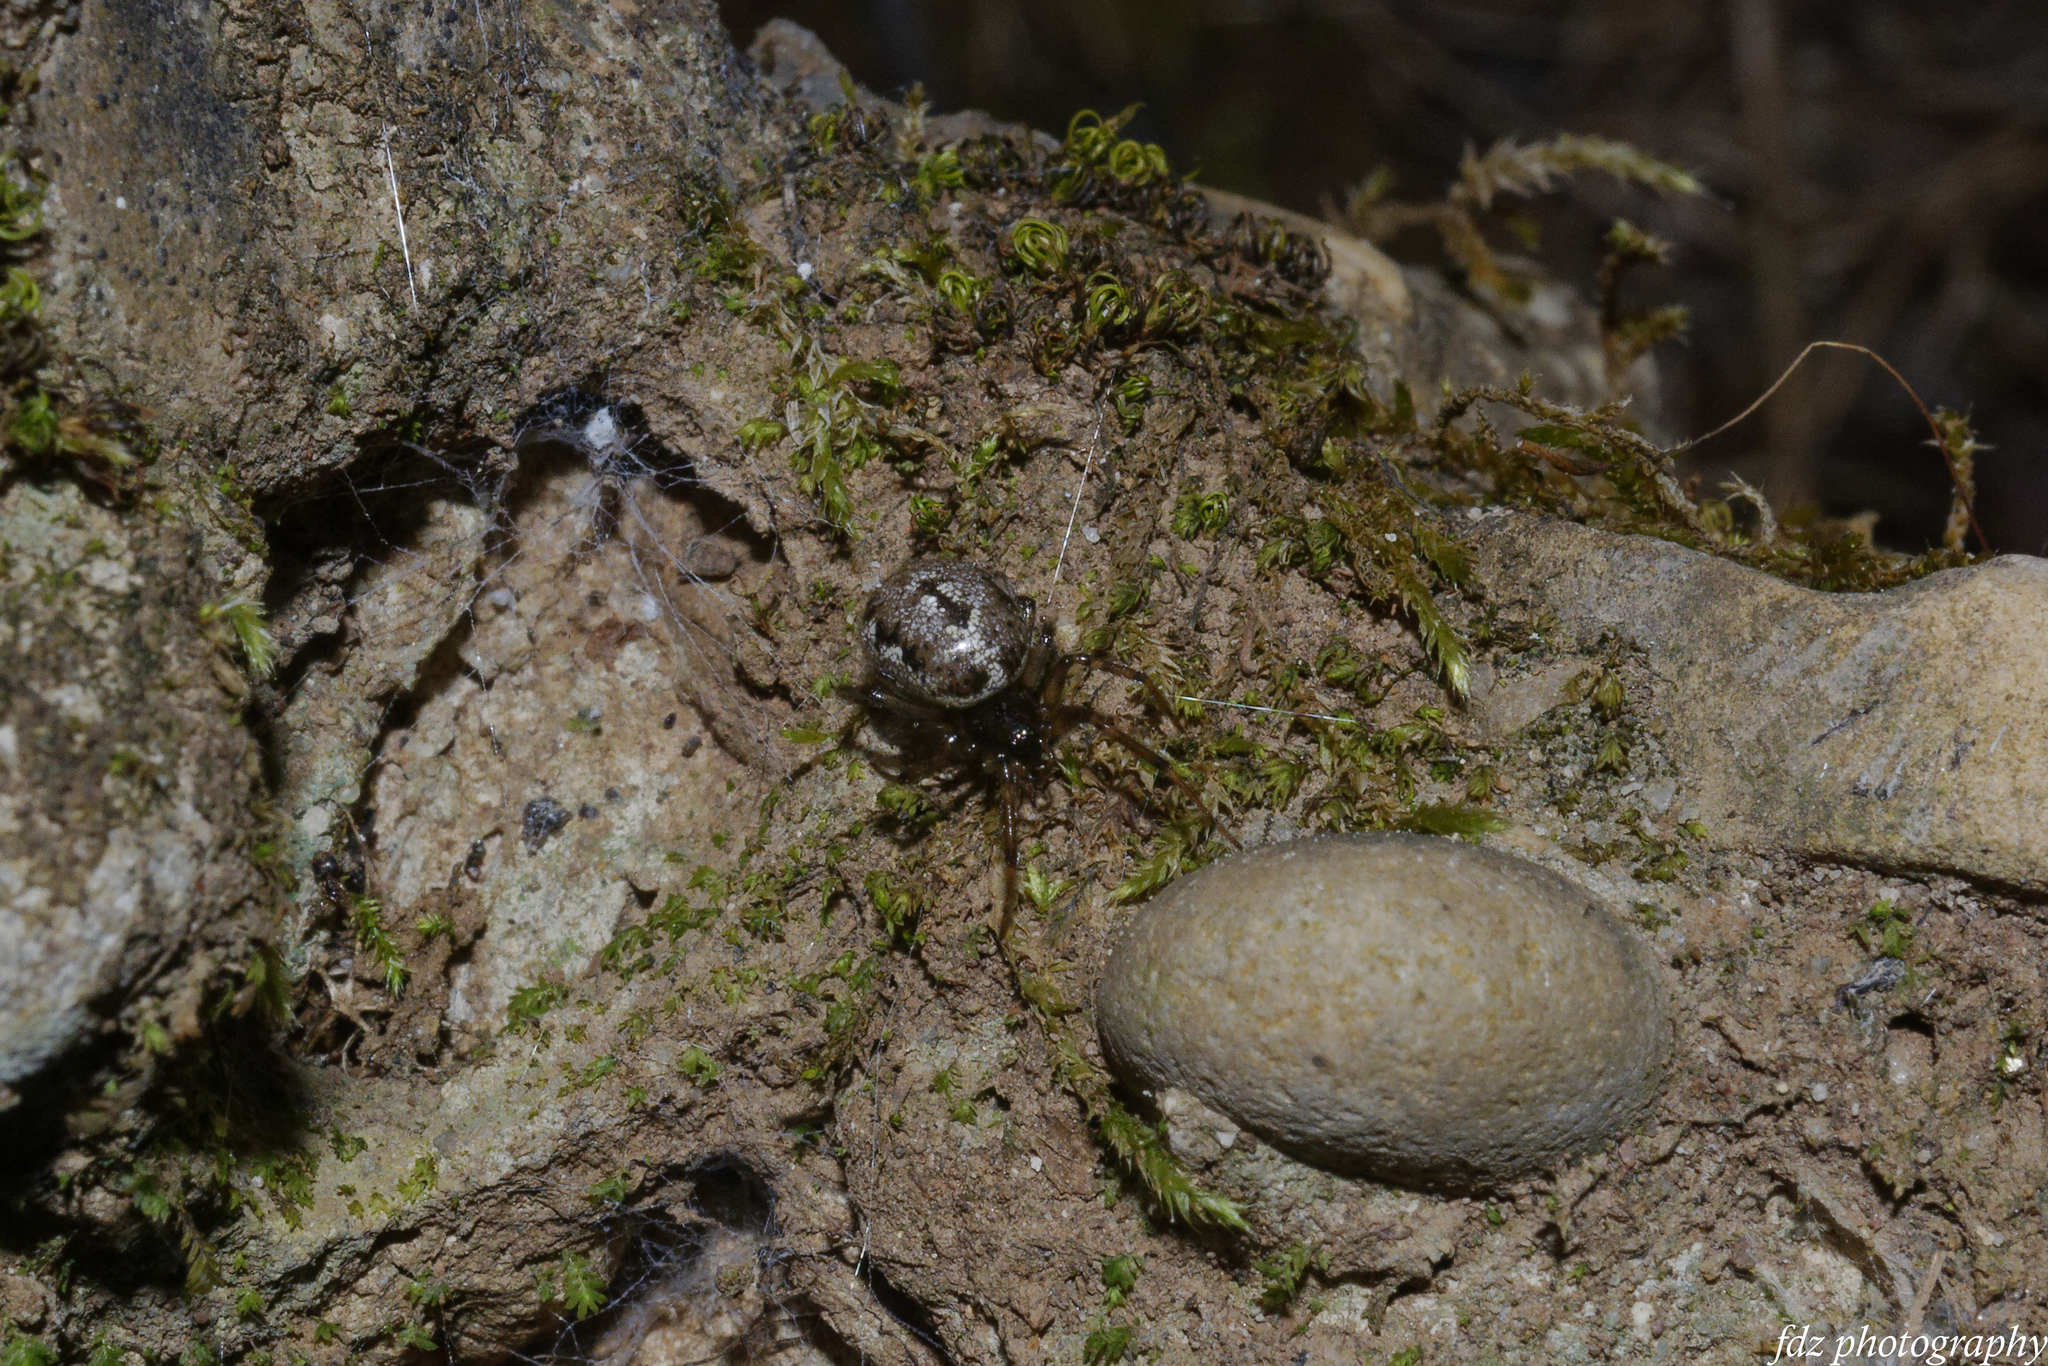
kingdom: Animalia
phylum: Arthropoda
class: Arachnida
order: Araneae
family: Theridiidae
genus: Enoplognatha
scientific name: Enoplognatha mandibularis
